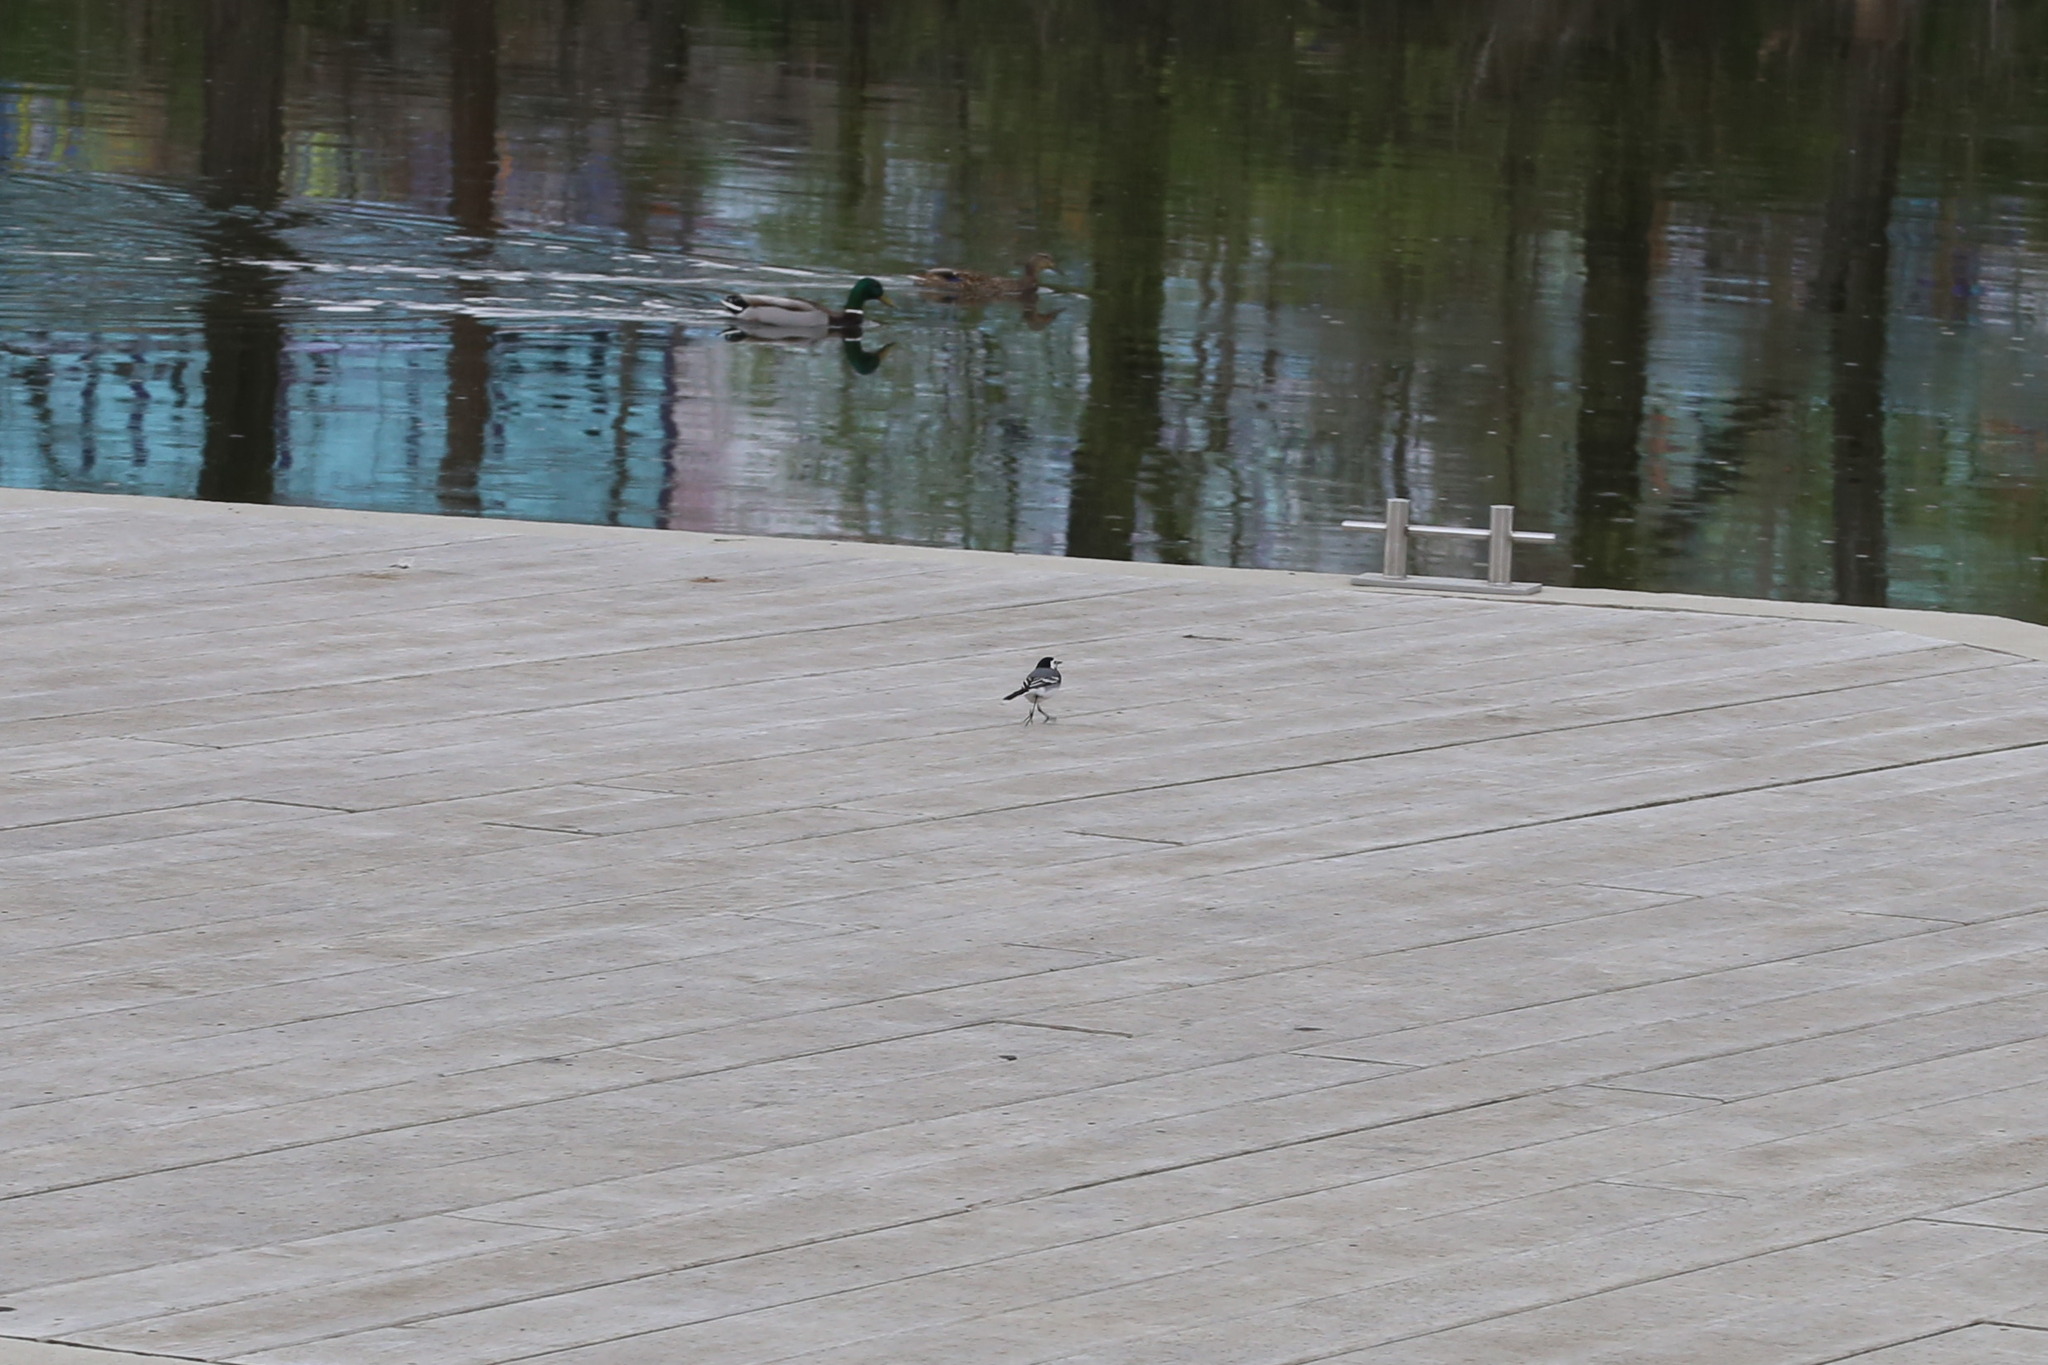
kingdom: Animalia
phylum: Chordata
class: Aves
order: Passeriformes
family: Motacillidae
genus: Motacilla
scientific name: Motacilla alba
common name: White wagtail
